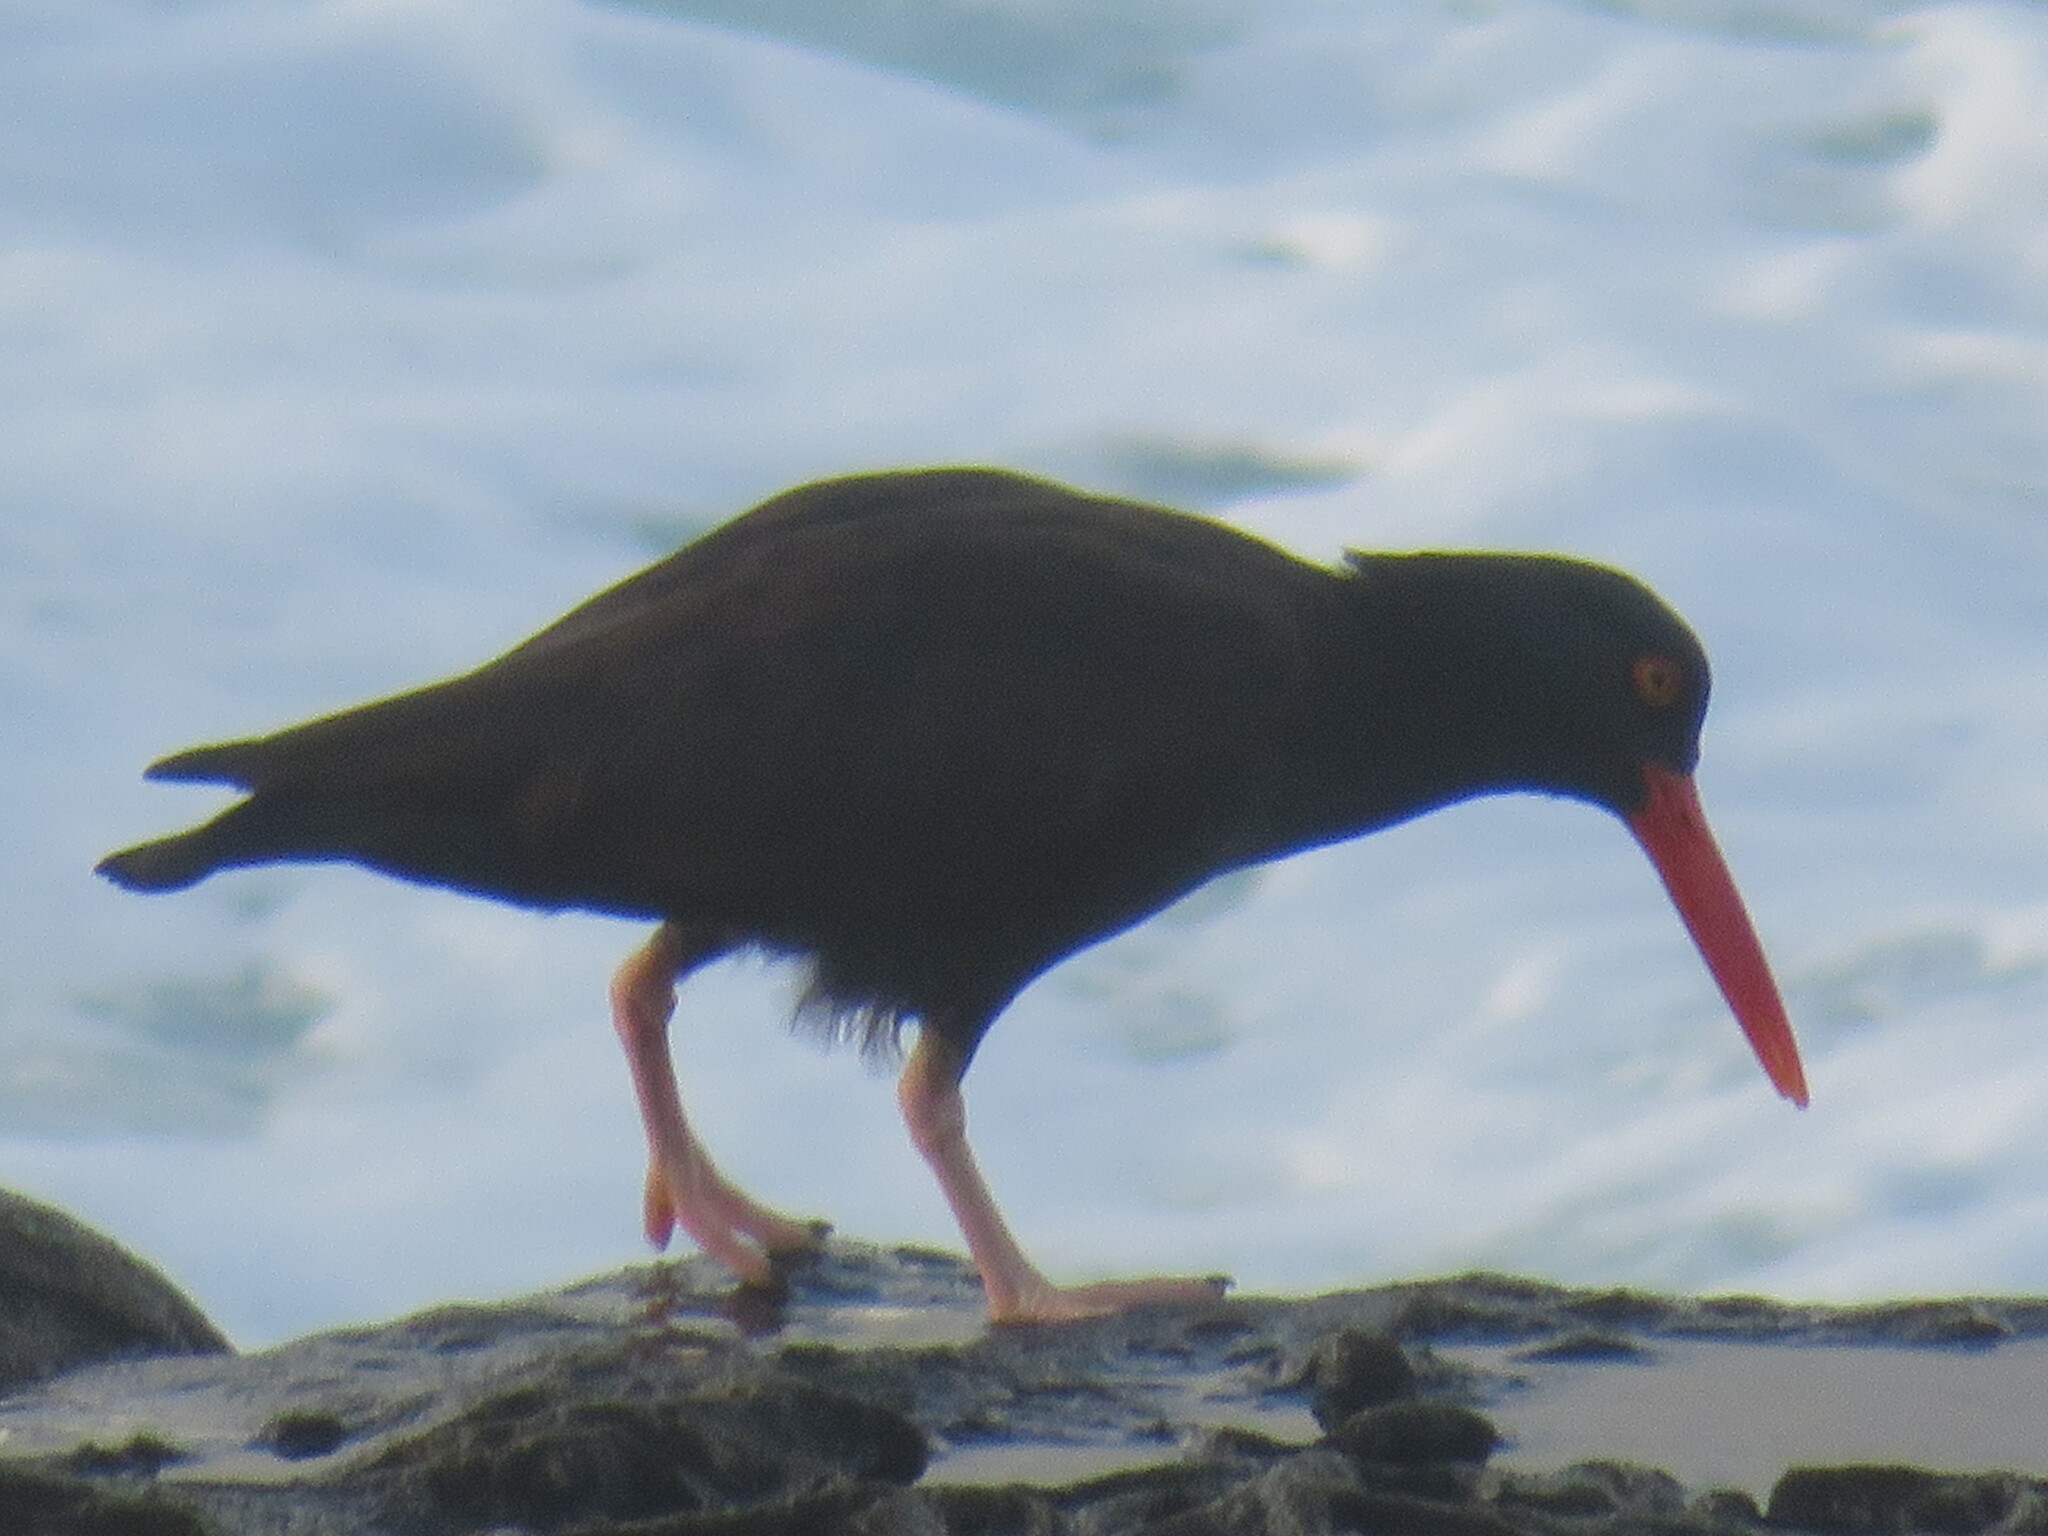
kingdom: Animalia
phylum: Chordata
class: Aves
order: Charadriiformes
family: Haematopodidae
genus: Haematopus
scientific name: Haematopus bachmani
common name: Black oystercatcher
